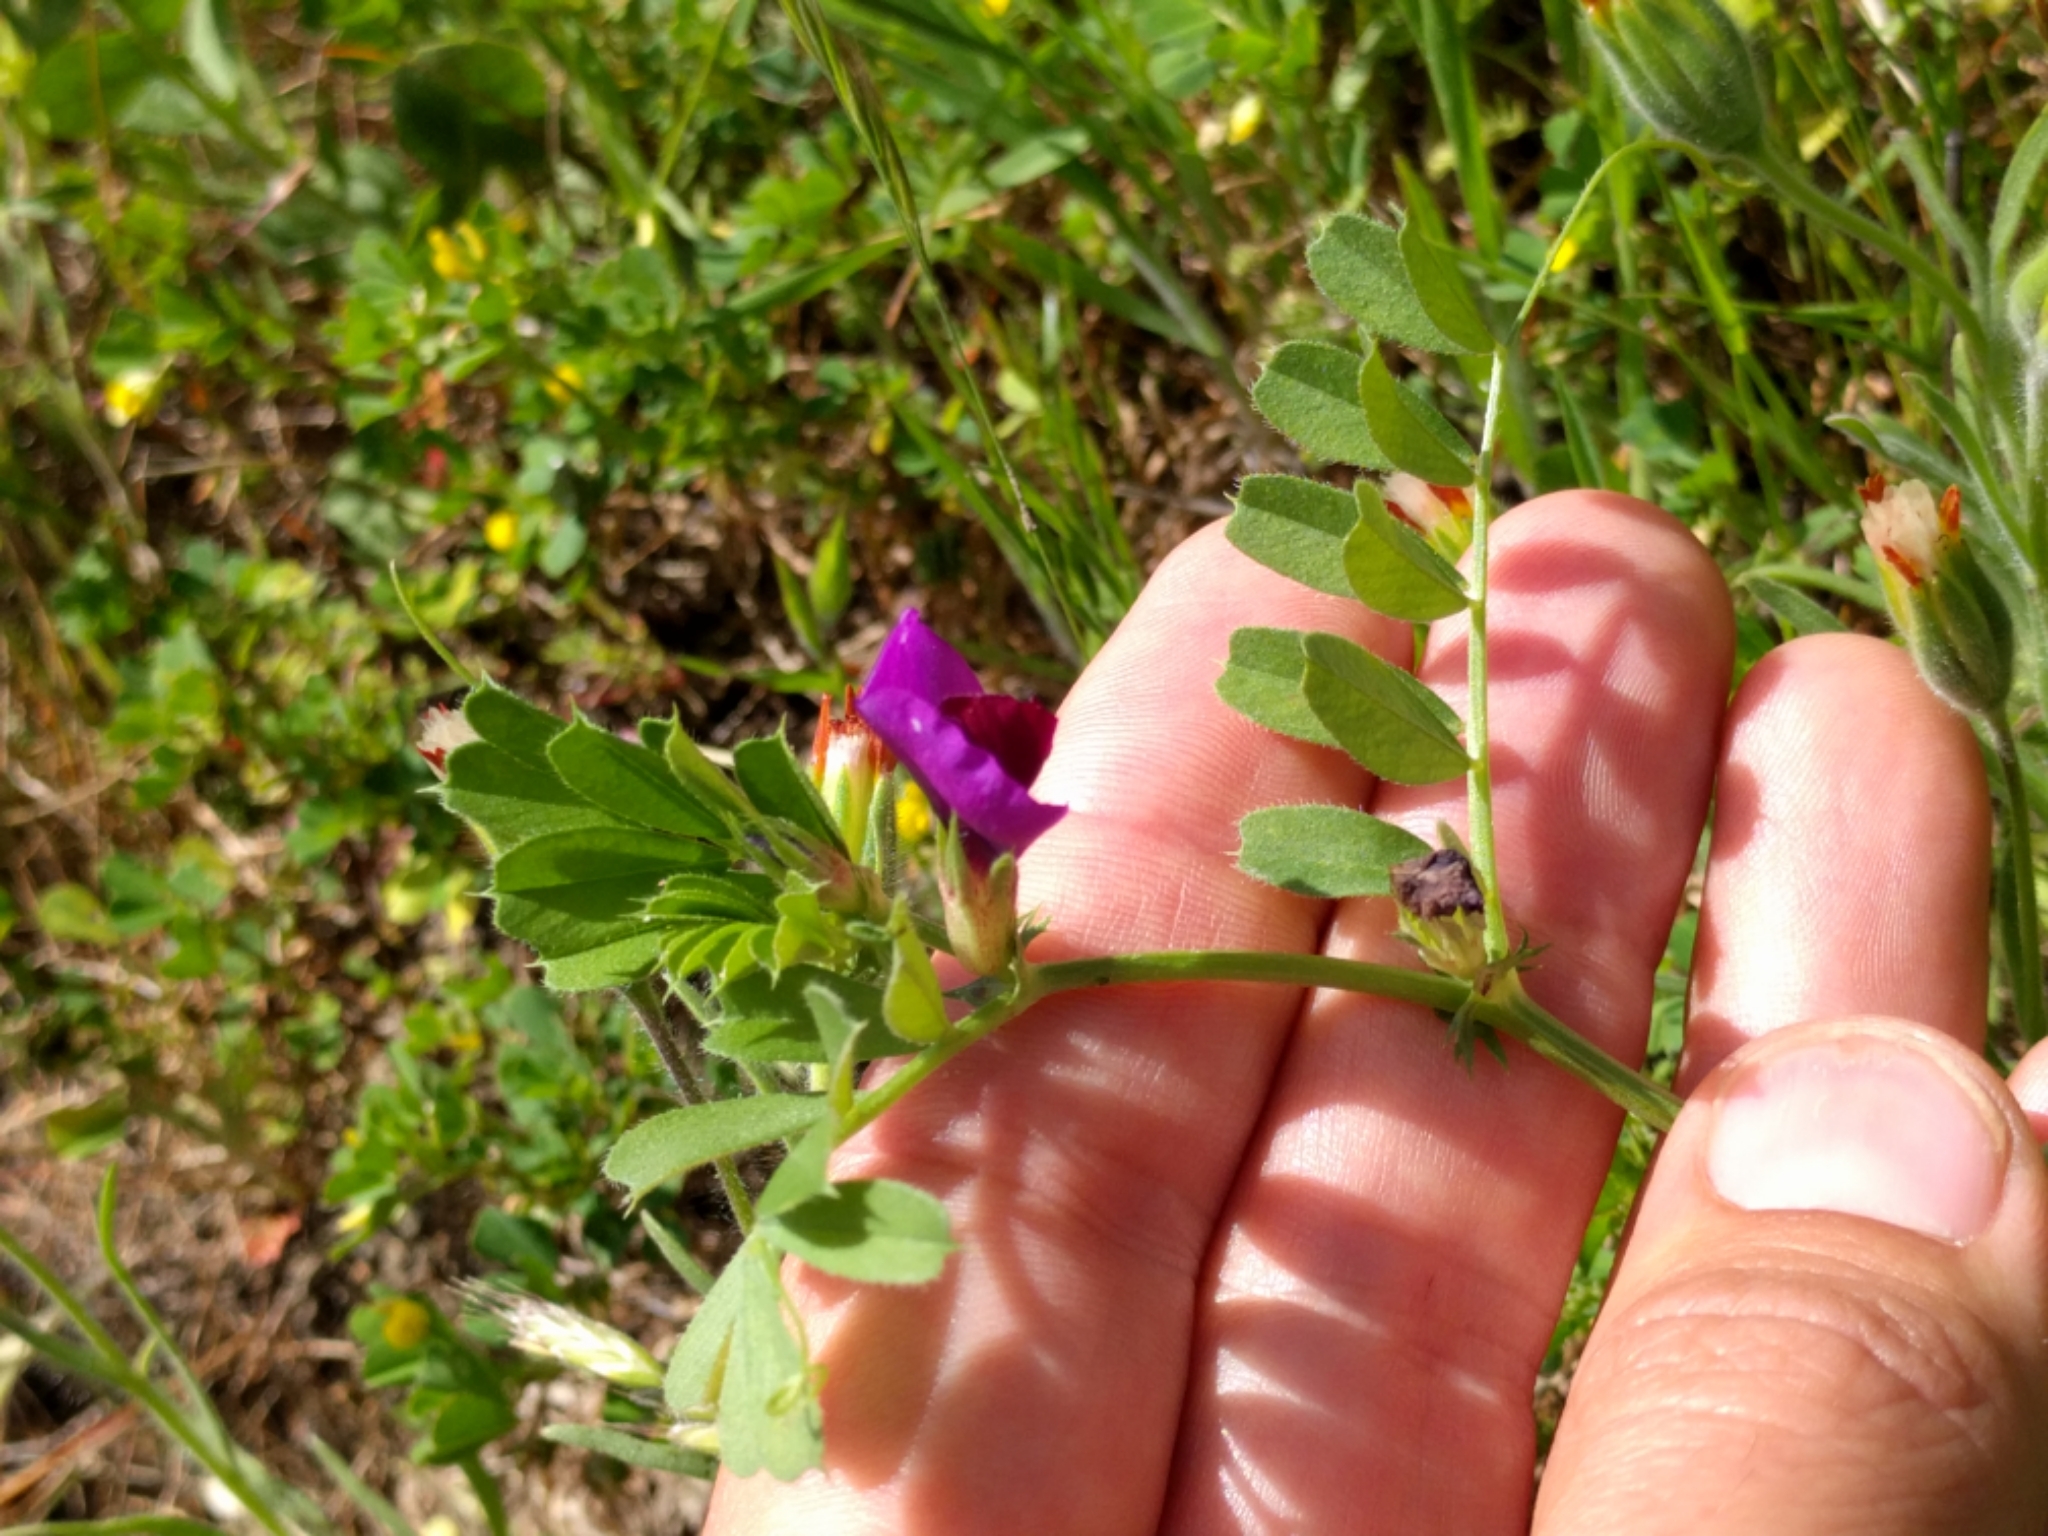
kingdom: Plantae
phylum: Tracheophyta
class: Magnoliopsida
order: Fabales
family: Fabaceae
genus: Vicia
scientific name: Vicia sativa
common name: Garden vetch
